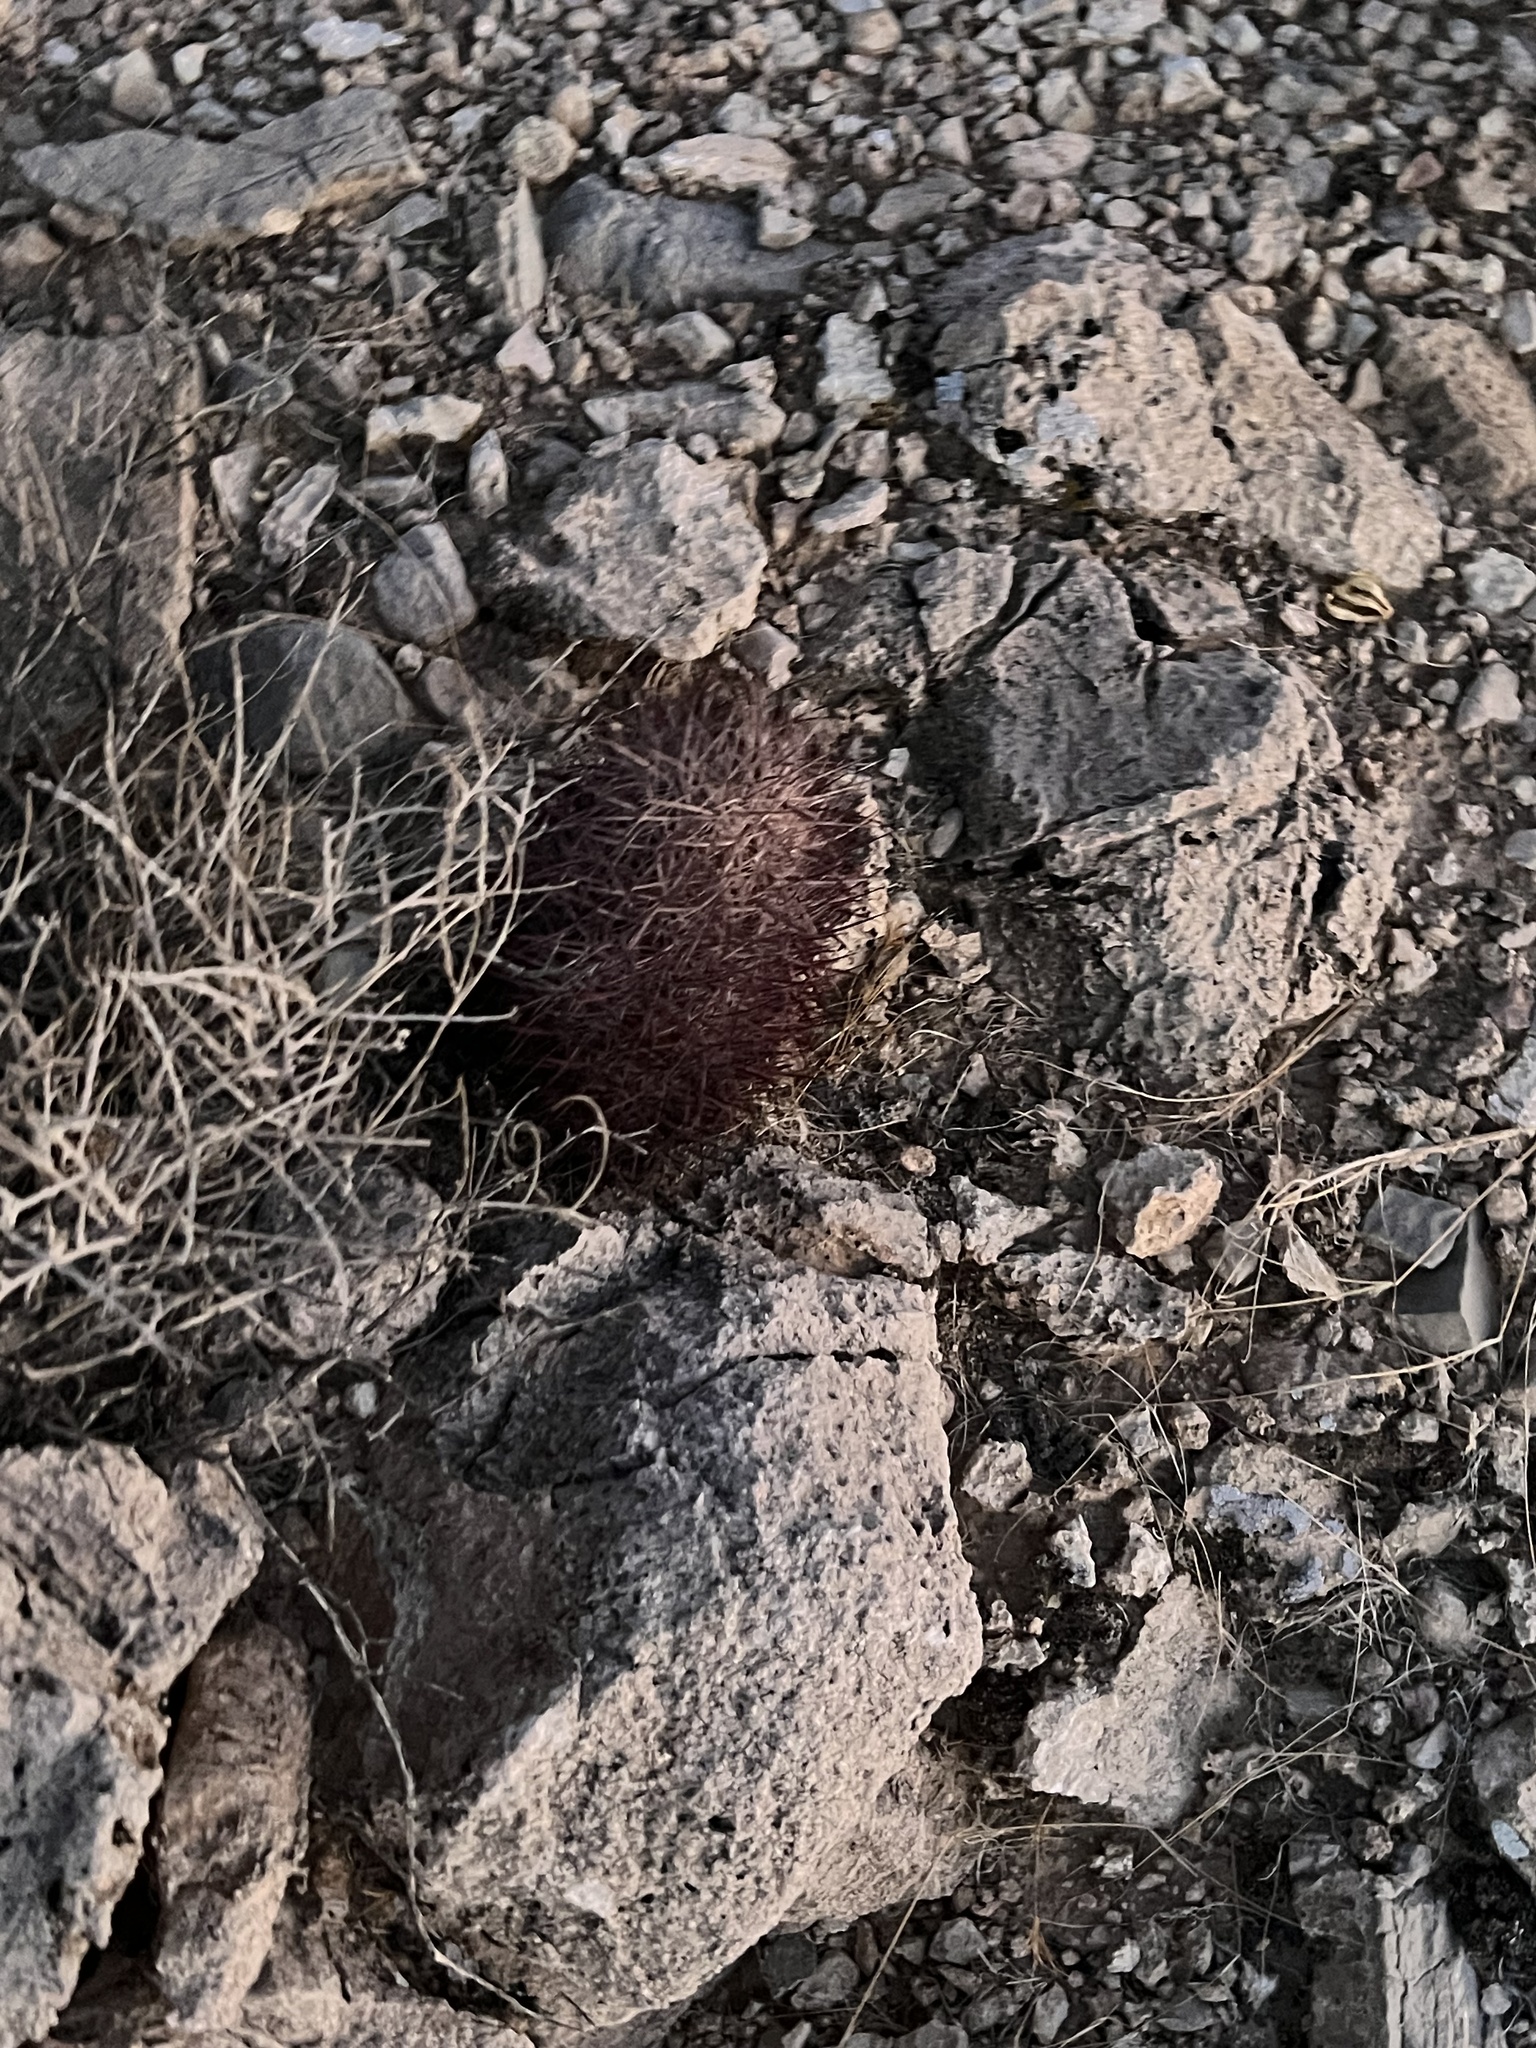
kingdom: Plantae
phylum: Tracheophyta
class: Magnoliopsida
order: Caryophyllales
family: Cactaceae
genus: Sclerocactus
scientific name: Sclerocactus johnsonii
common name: Eight-spine fishhook cactus
